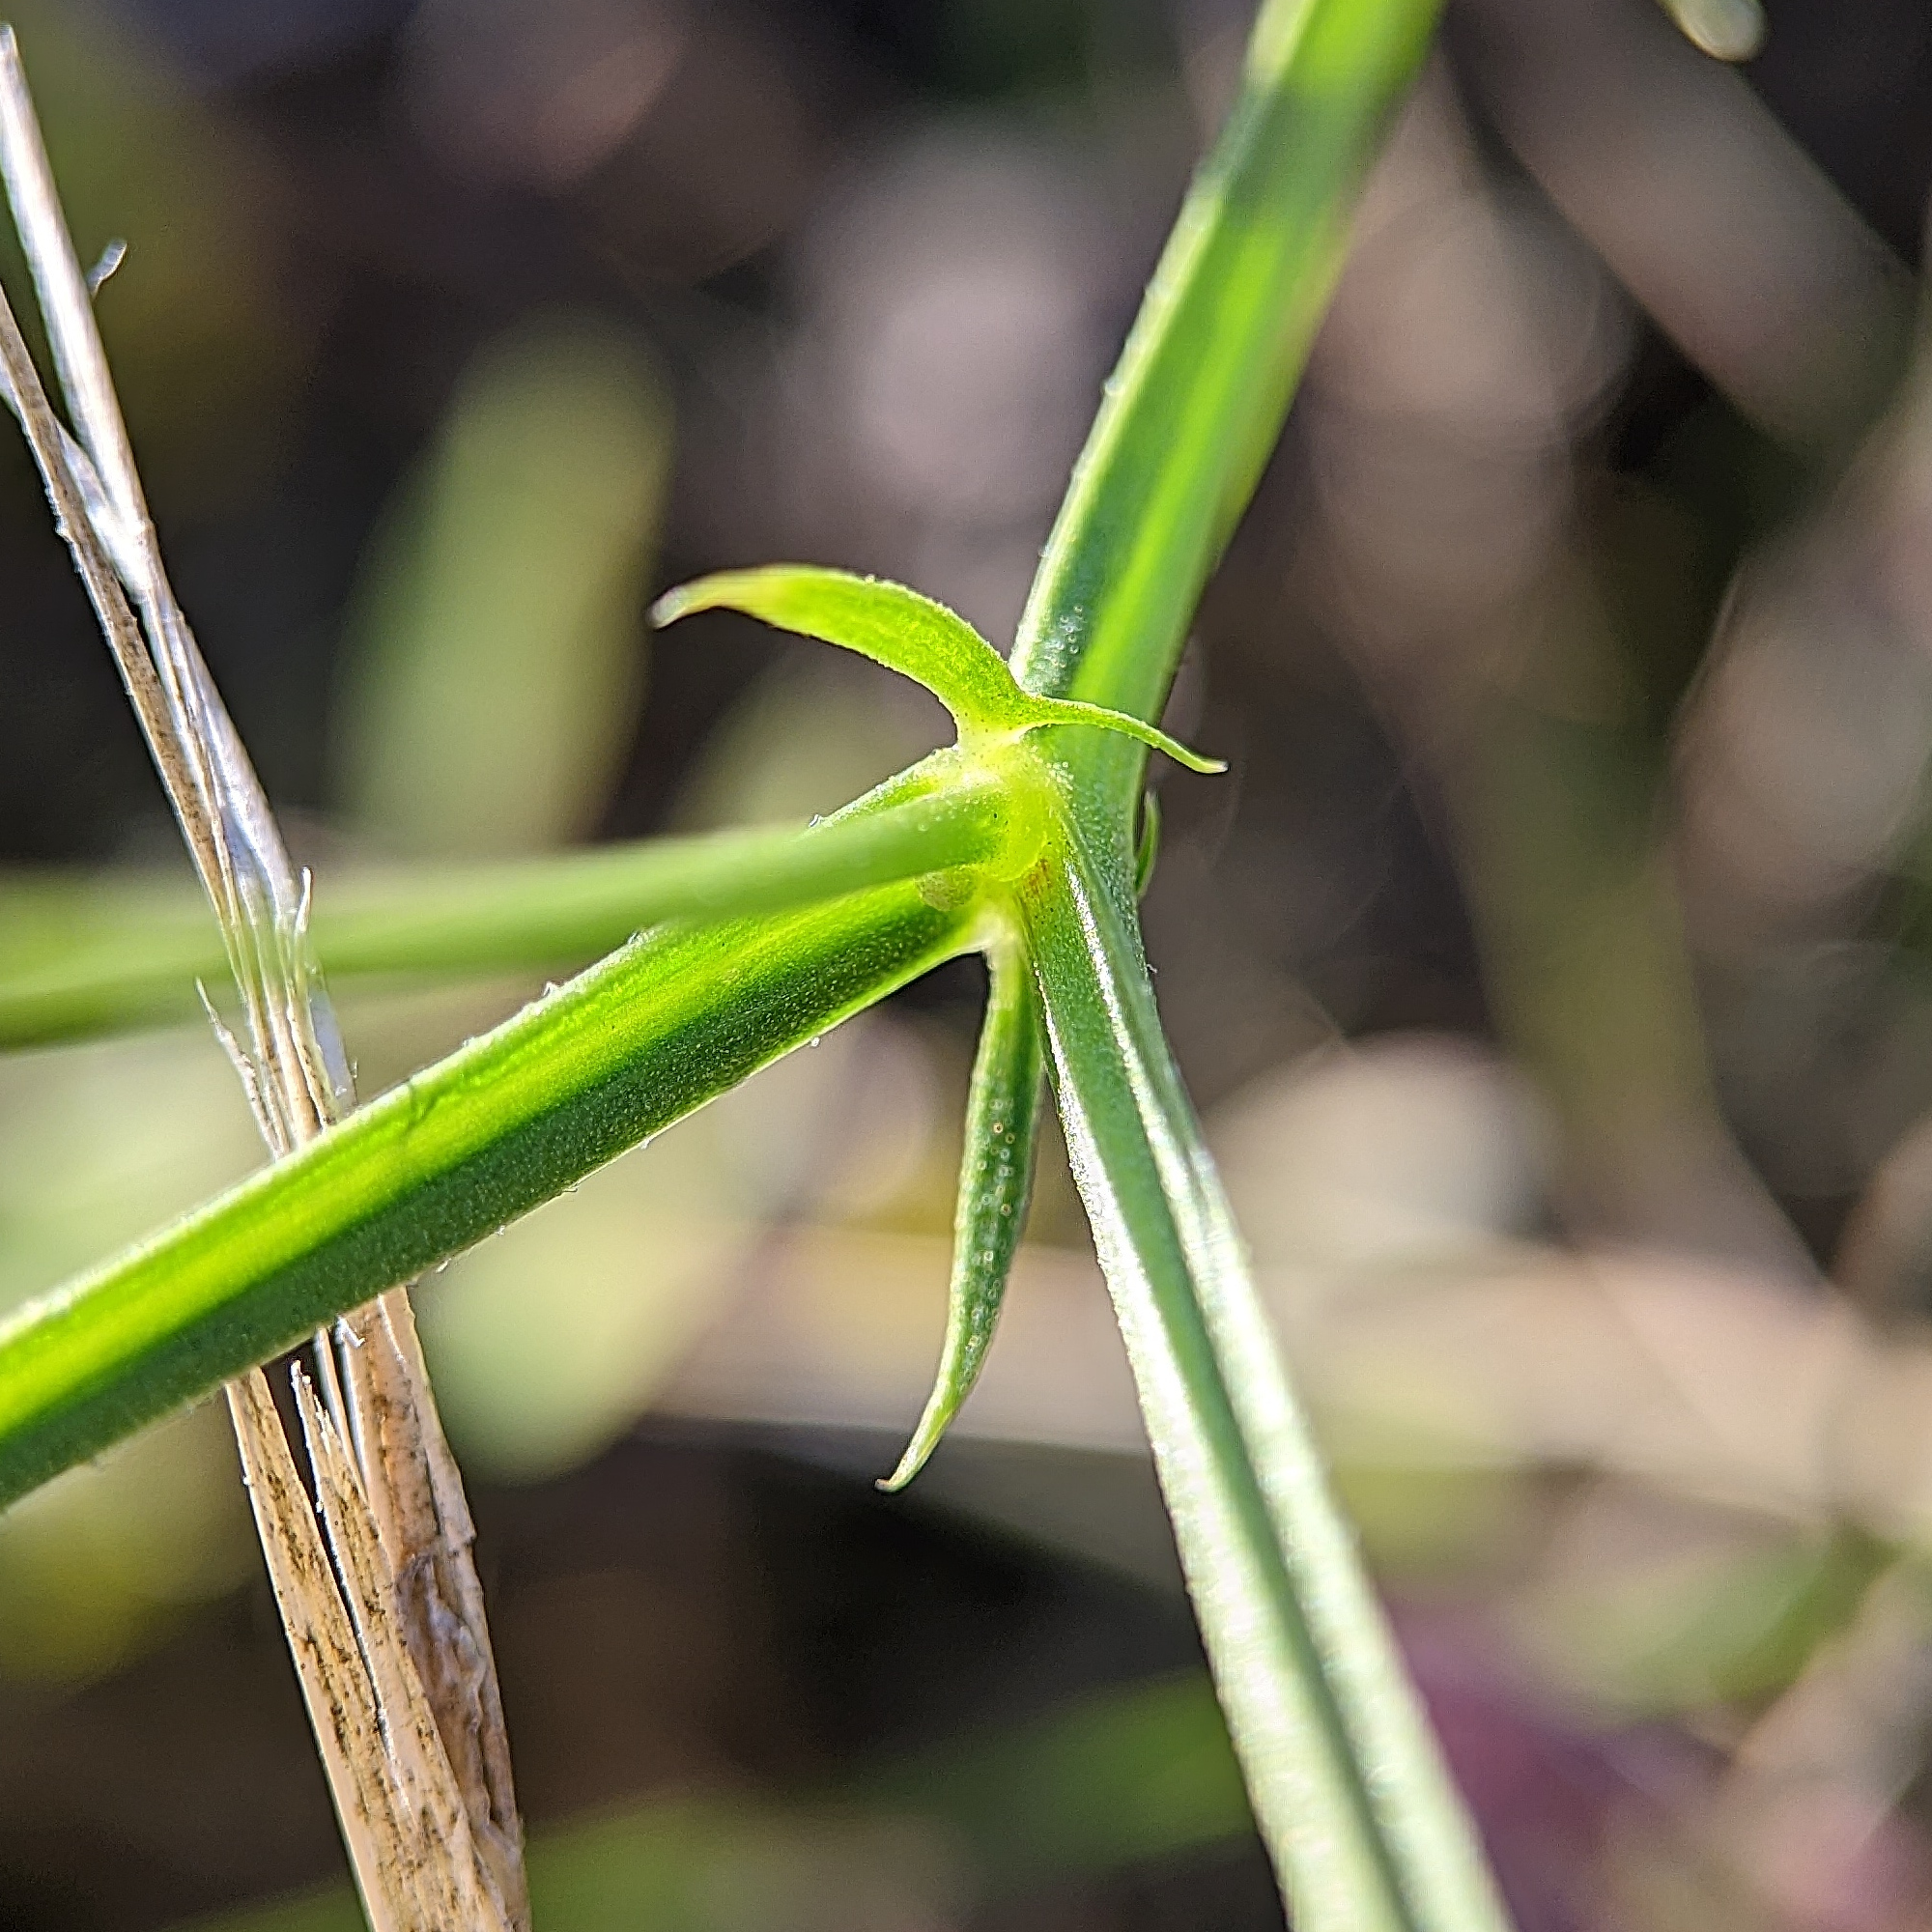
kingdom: Plantae
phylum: Tracheophyta
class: Magnoliopsida
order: Fabales
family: Fabaceae
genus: Lathyrus
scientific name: Lathyrus sylvestris
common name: Flat pea
